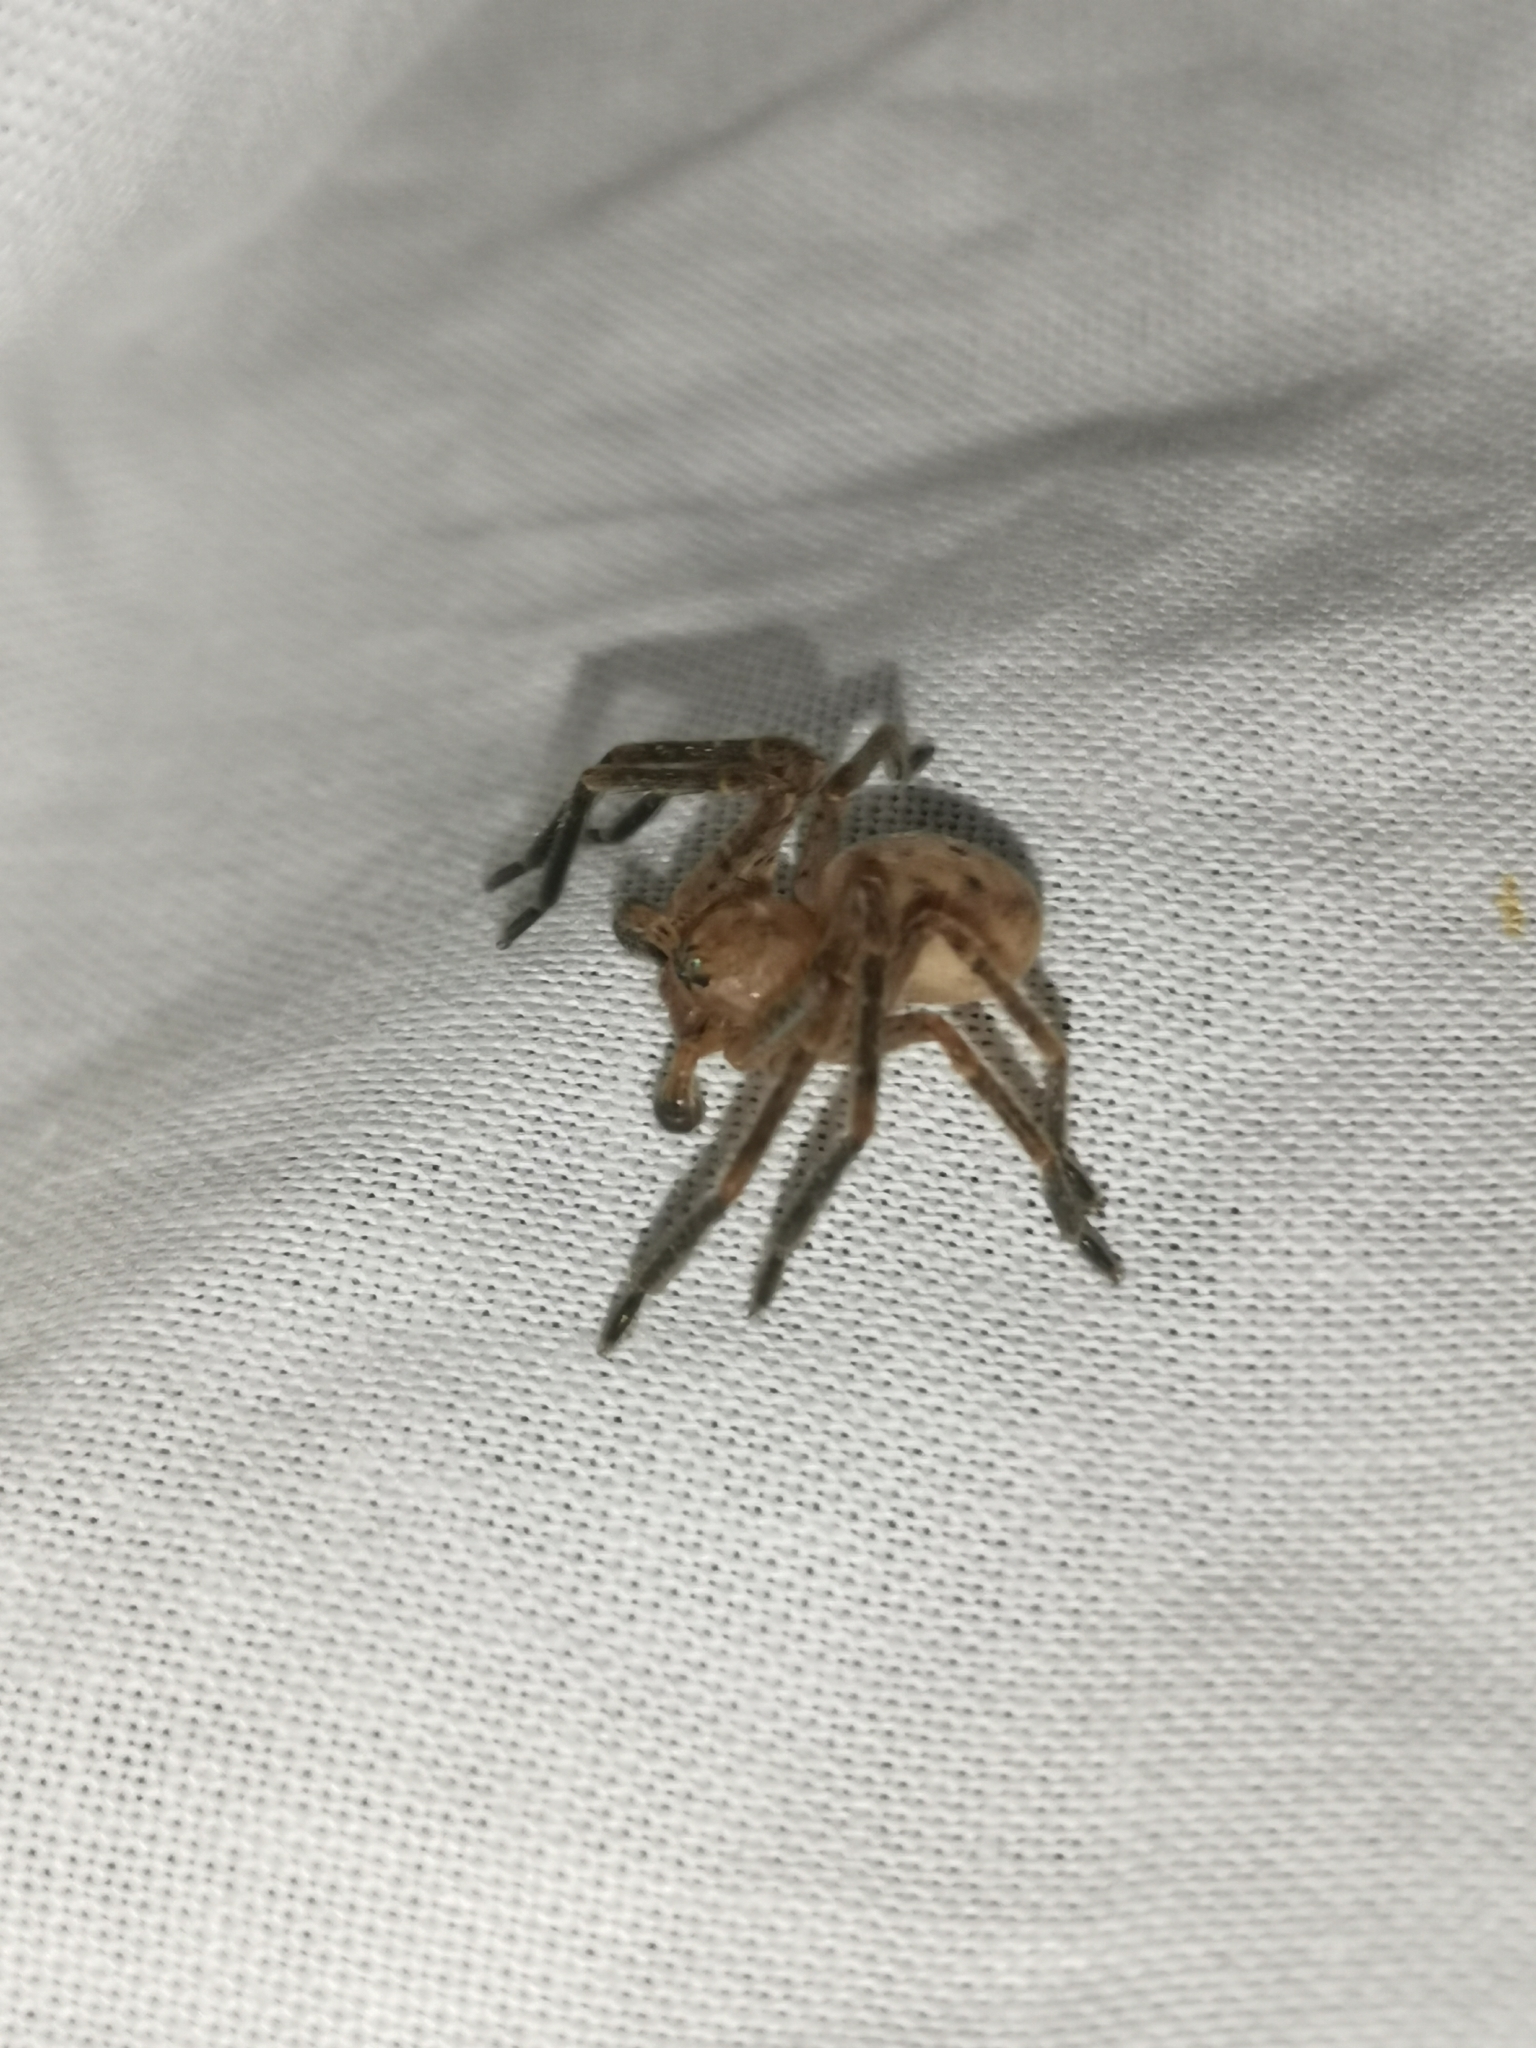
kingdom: Animalia
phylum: Arthropoda
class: Arachnida
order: Araneae
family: Sparassidae
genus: Olios
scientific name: Olios argelasius
